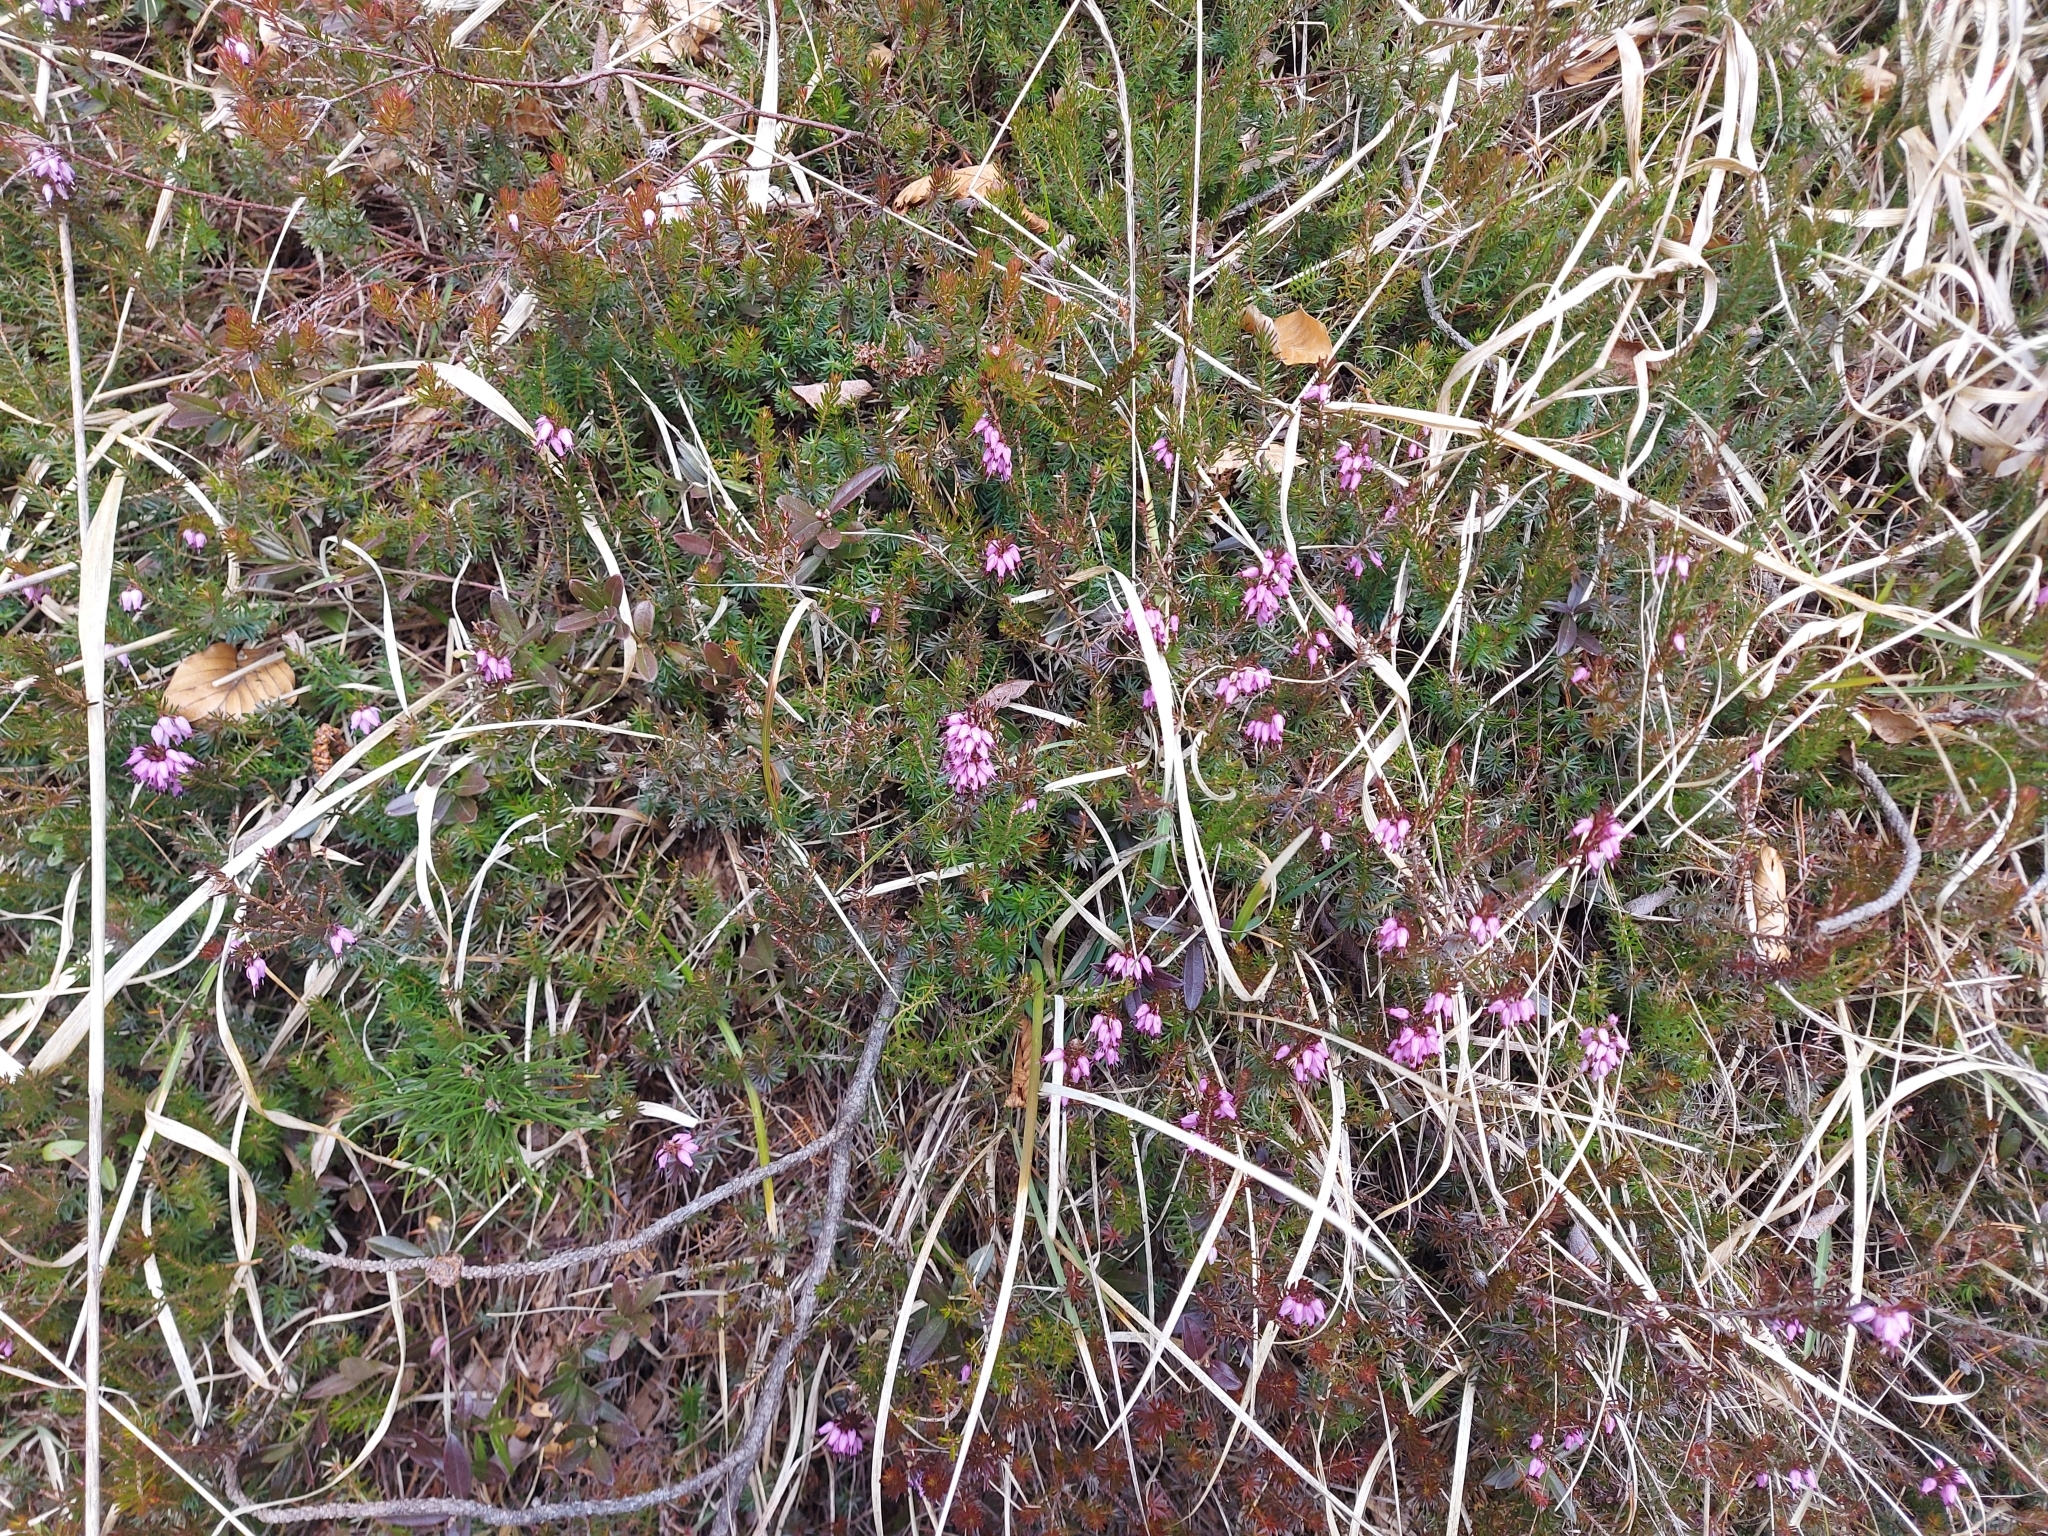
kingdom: Plantae
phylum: Tracheophyta
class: Magnoliopsida
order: Ericales
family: Ericaceae
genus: Erica
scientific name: Erica carnea
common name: Winter heath
